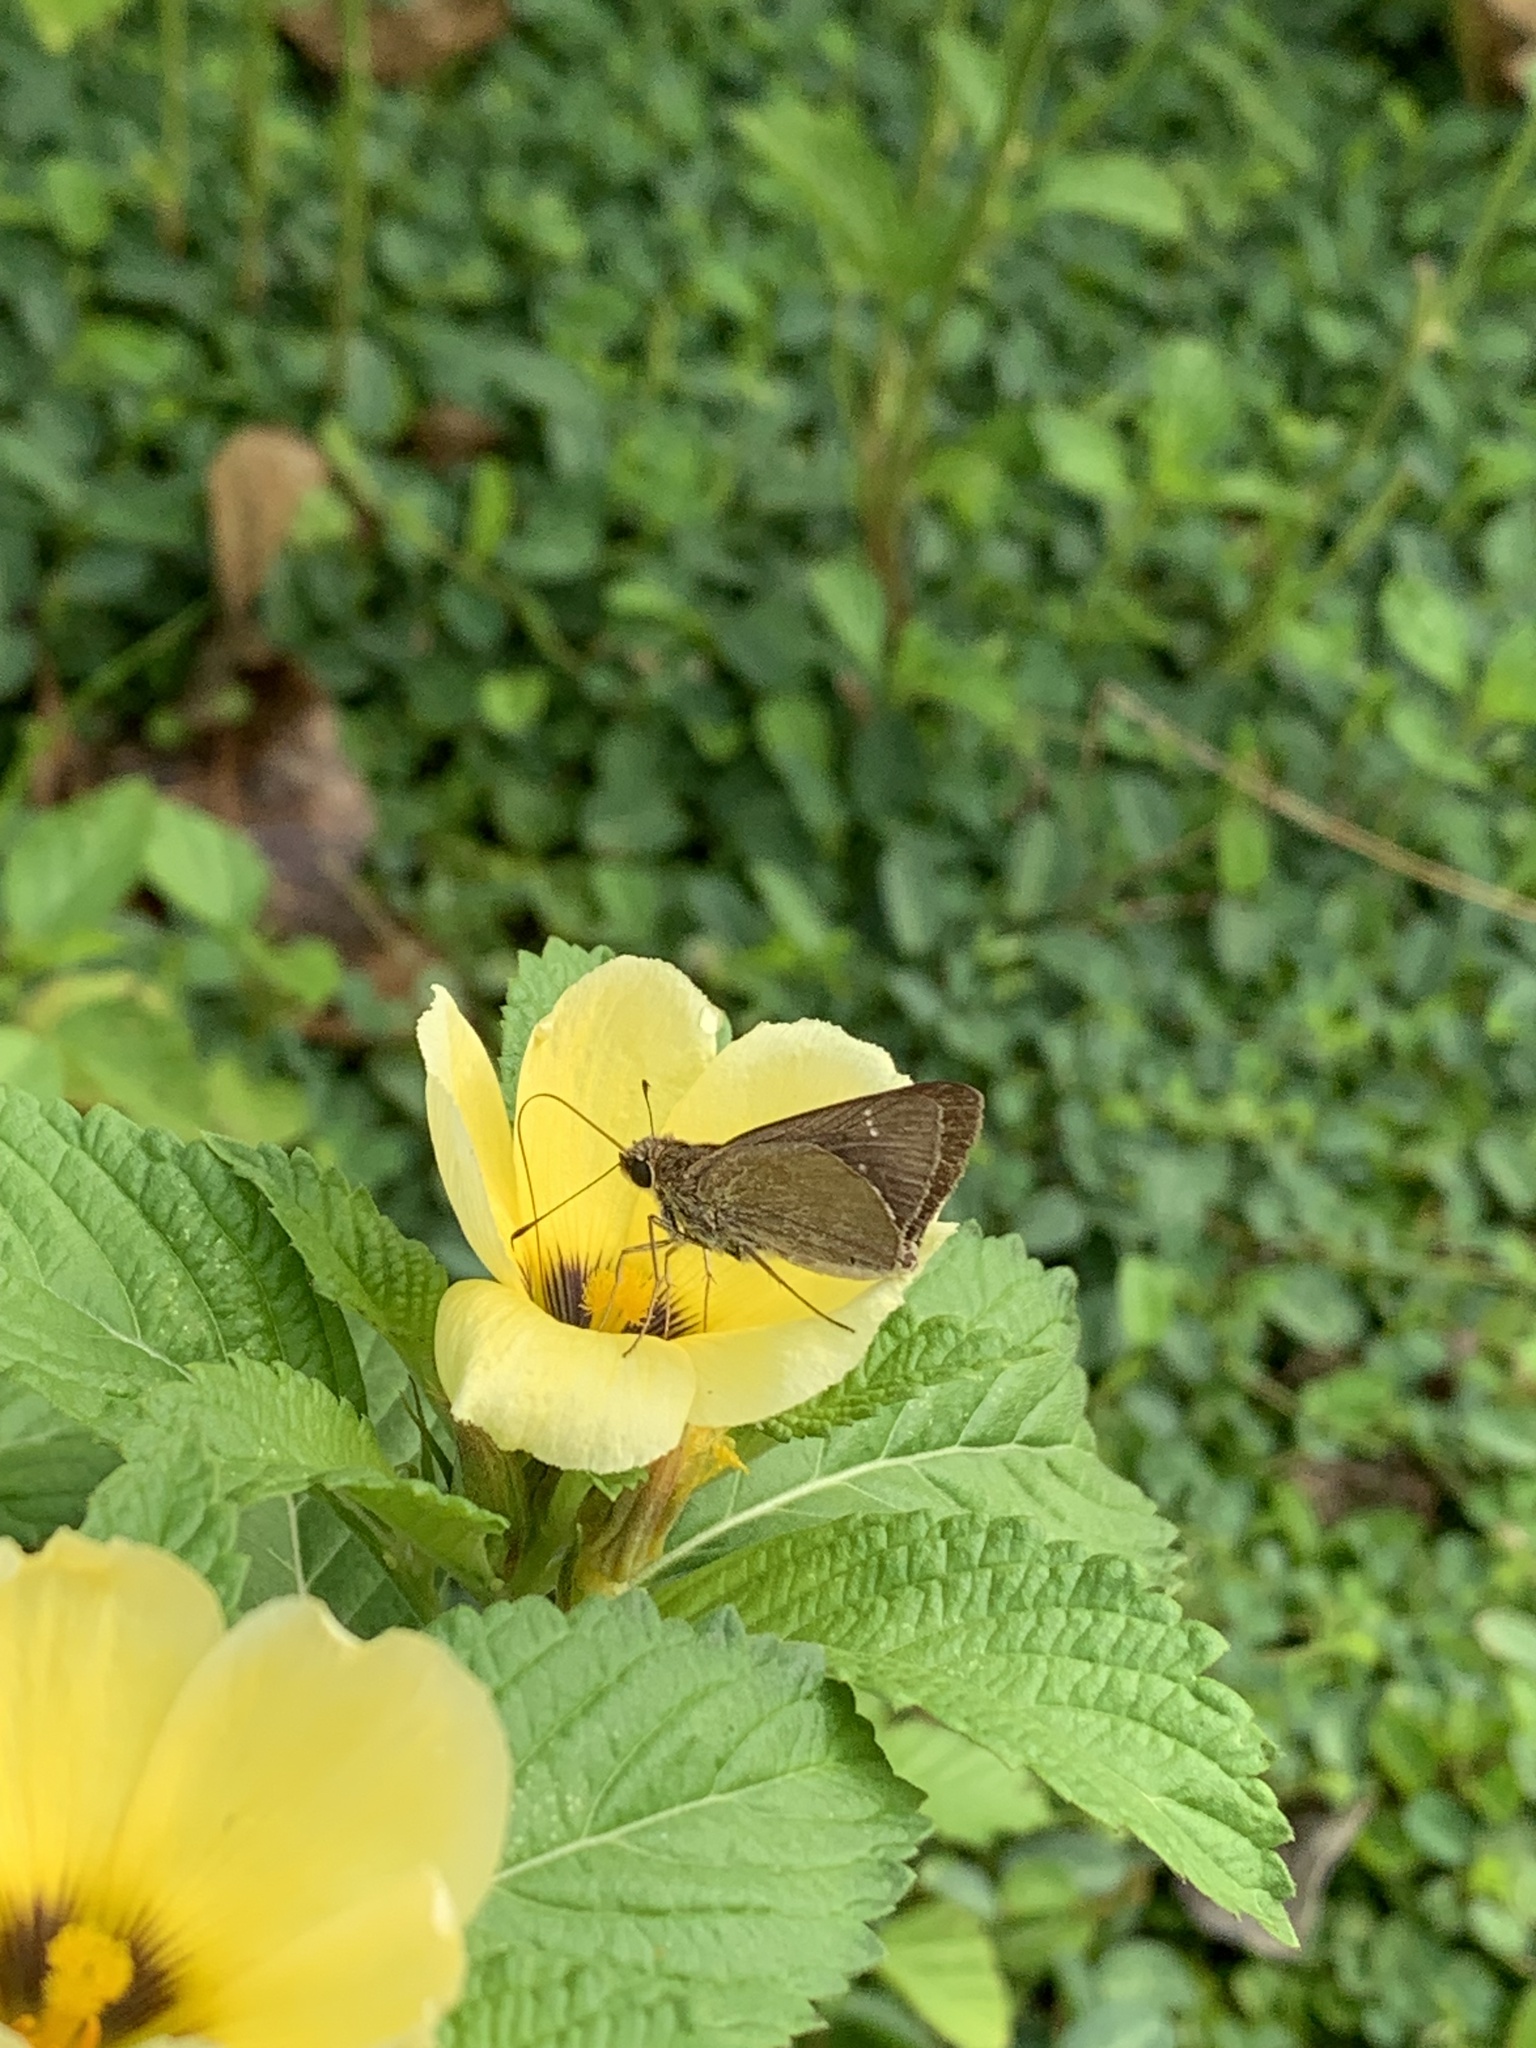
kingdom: Animalia
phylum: Arthropoda
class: Insecta
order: Lepidoptera
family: Hesperiidae
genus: Cymaenes
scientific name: Cymaenes tripunctus
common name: Dingy dotted skipper
